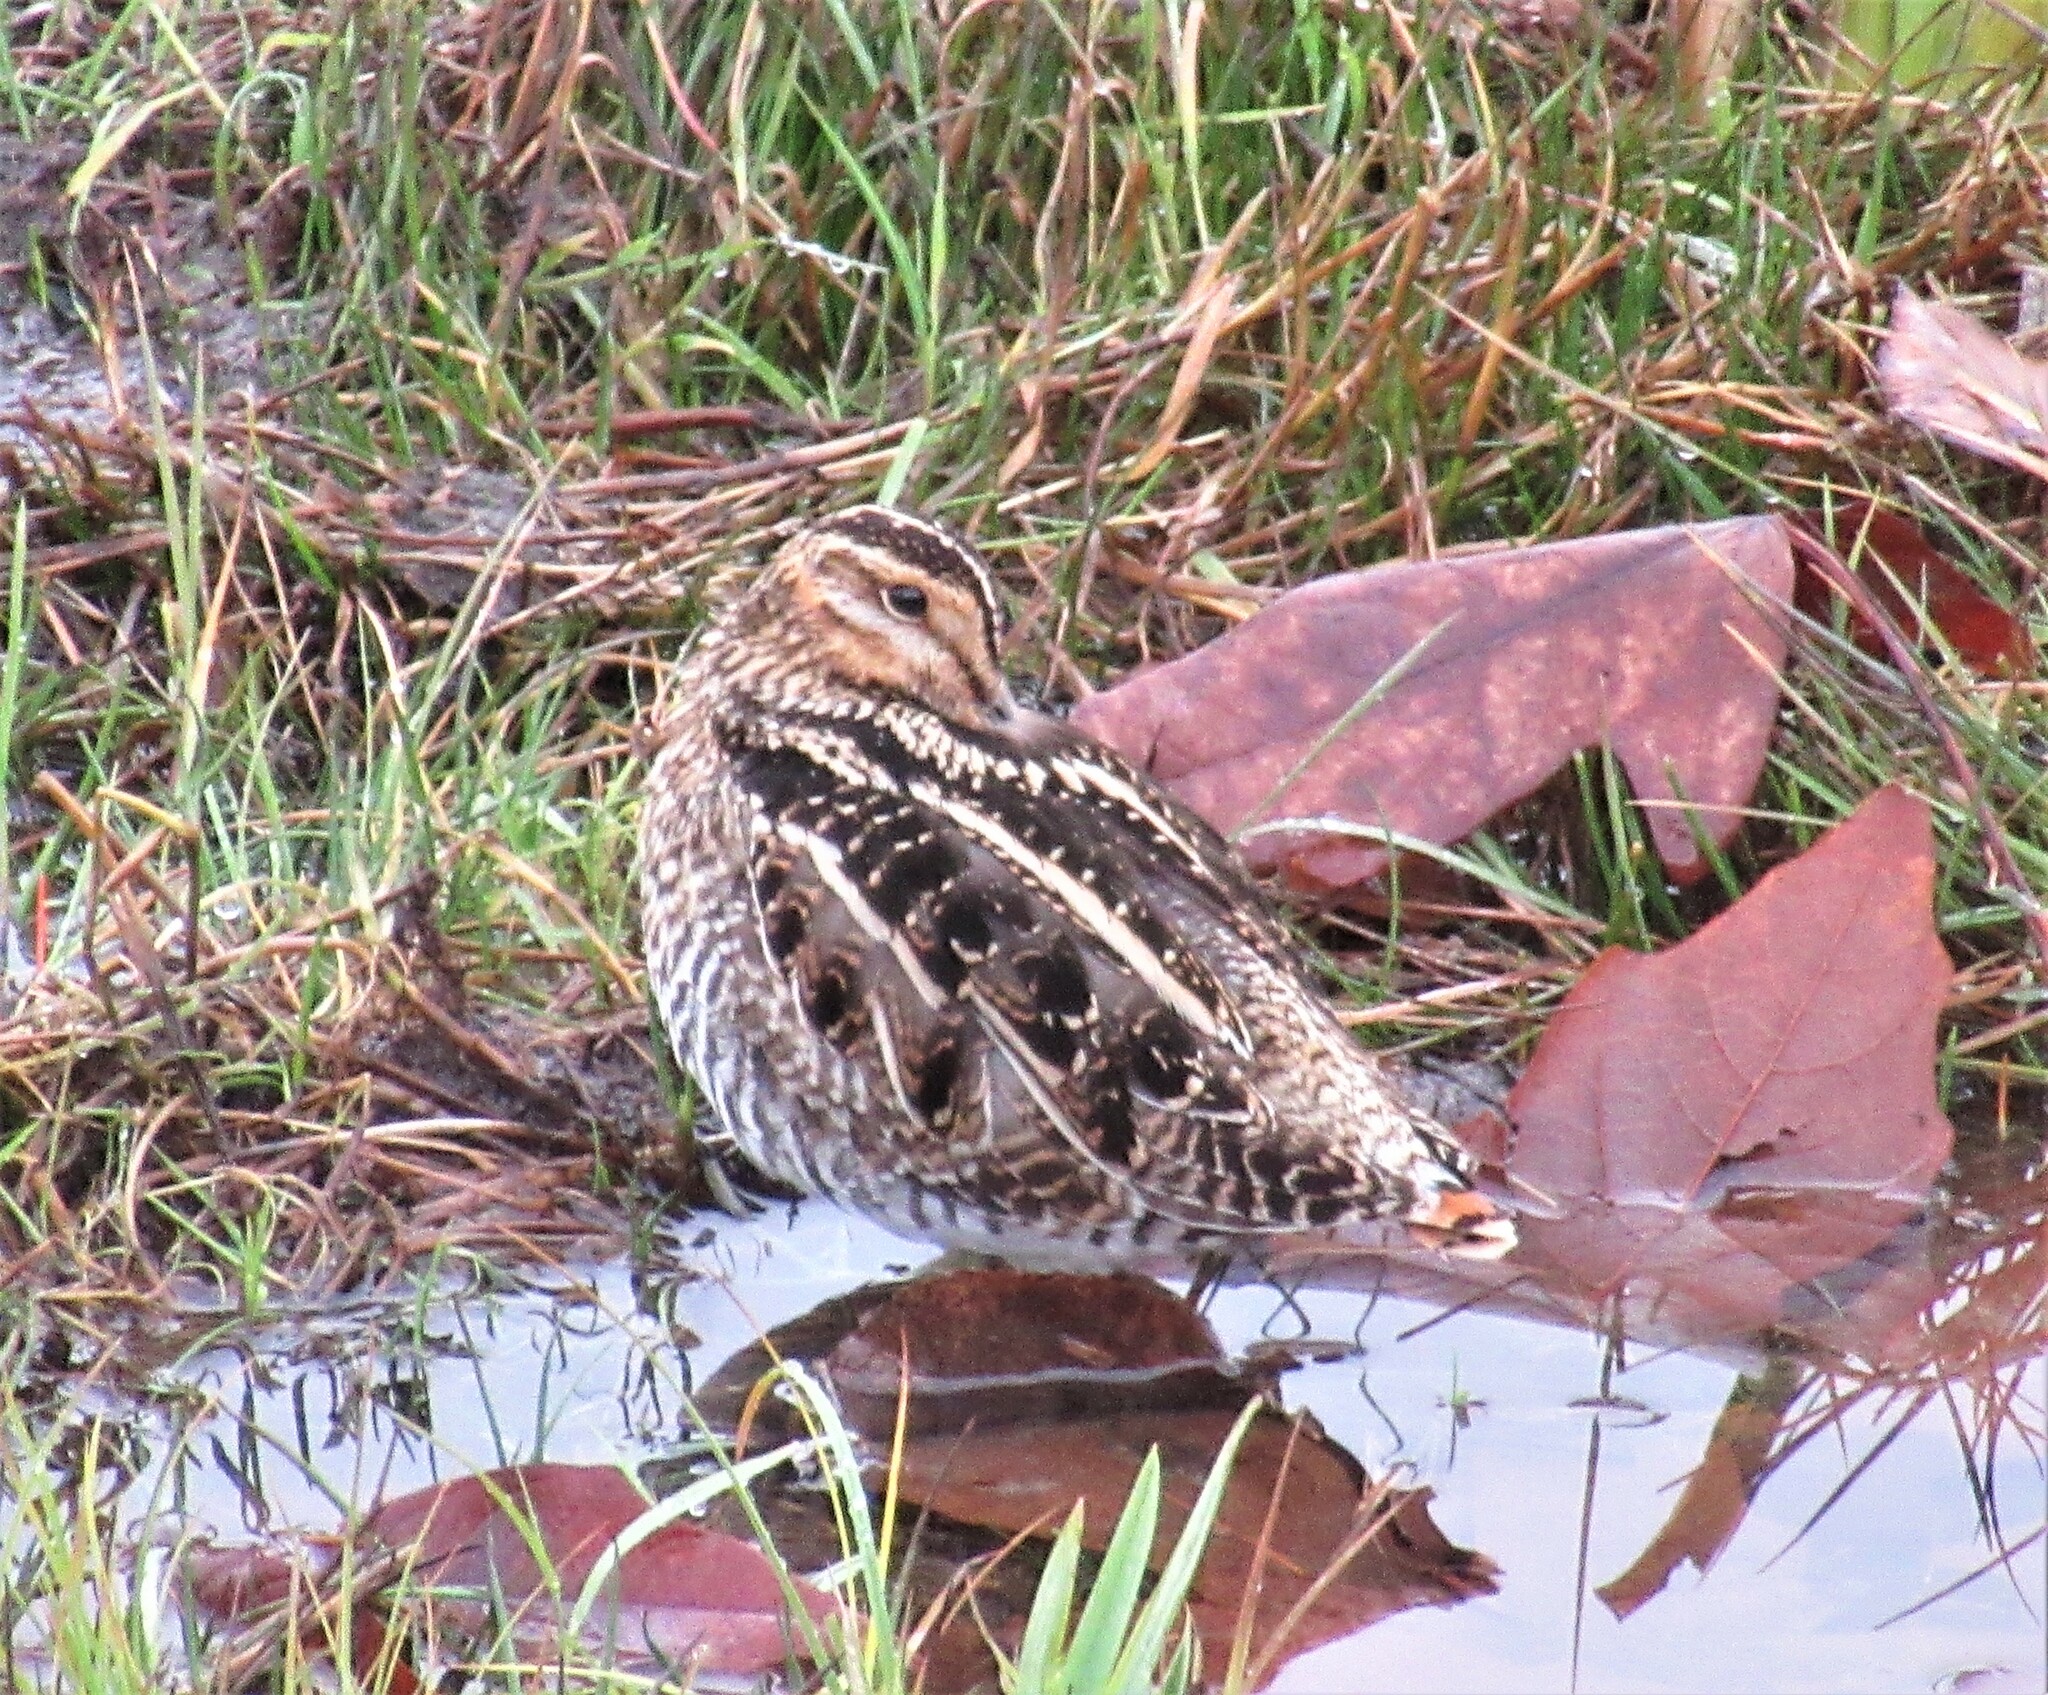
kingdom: Animalia
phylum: Chordata
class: Aves
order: Charadriiformes
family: Scolopacidae
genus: Gallinago
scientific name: Gallinago delicata
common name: Wilson's snipe
